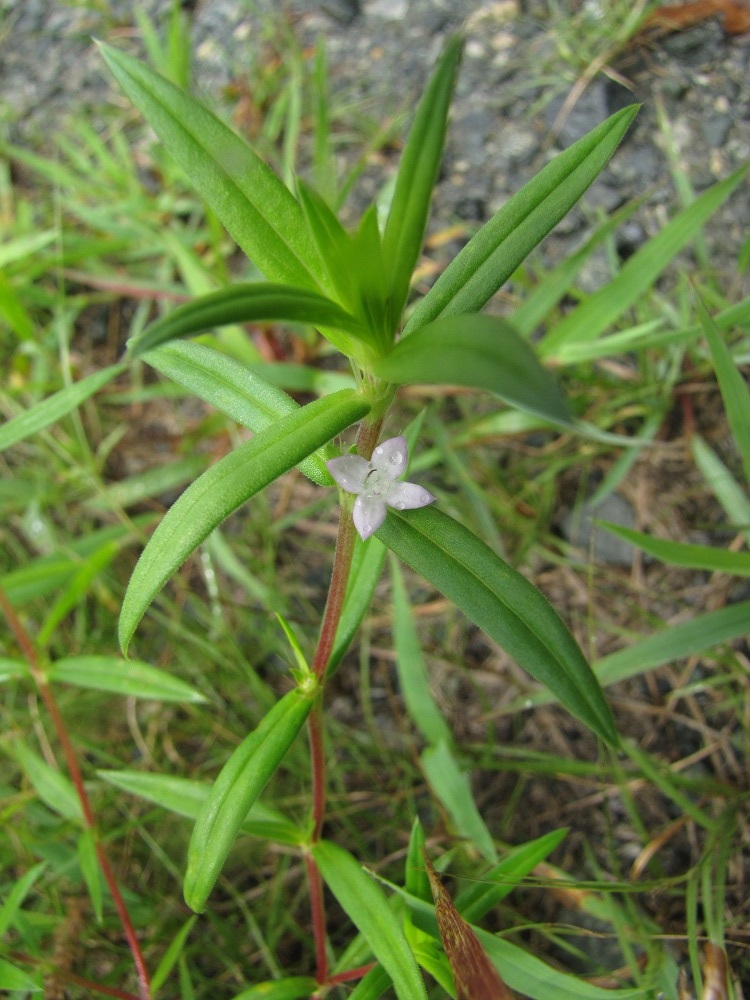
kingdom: Plantae
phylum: Tracheophyta
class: Magnoliopsida
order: Gentianales
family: Rubiaceae
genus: Hexasepalum
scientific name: Hexasepalum teres
